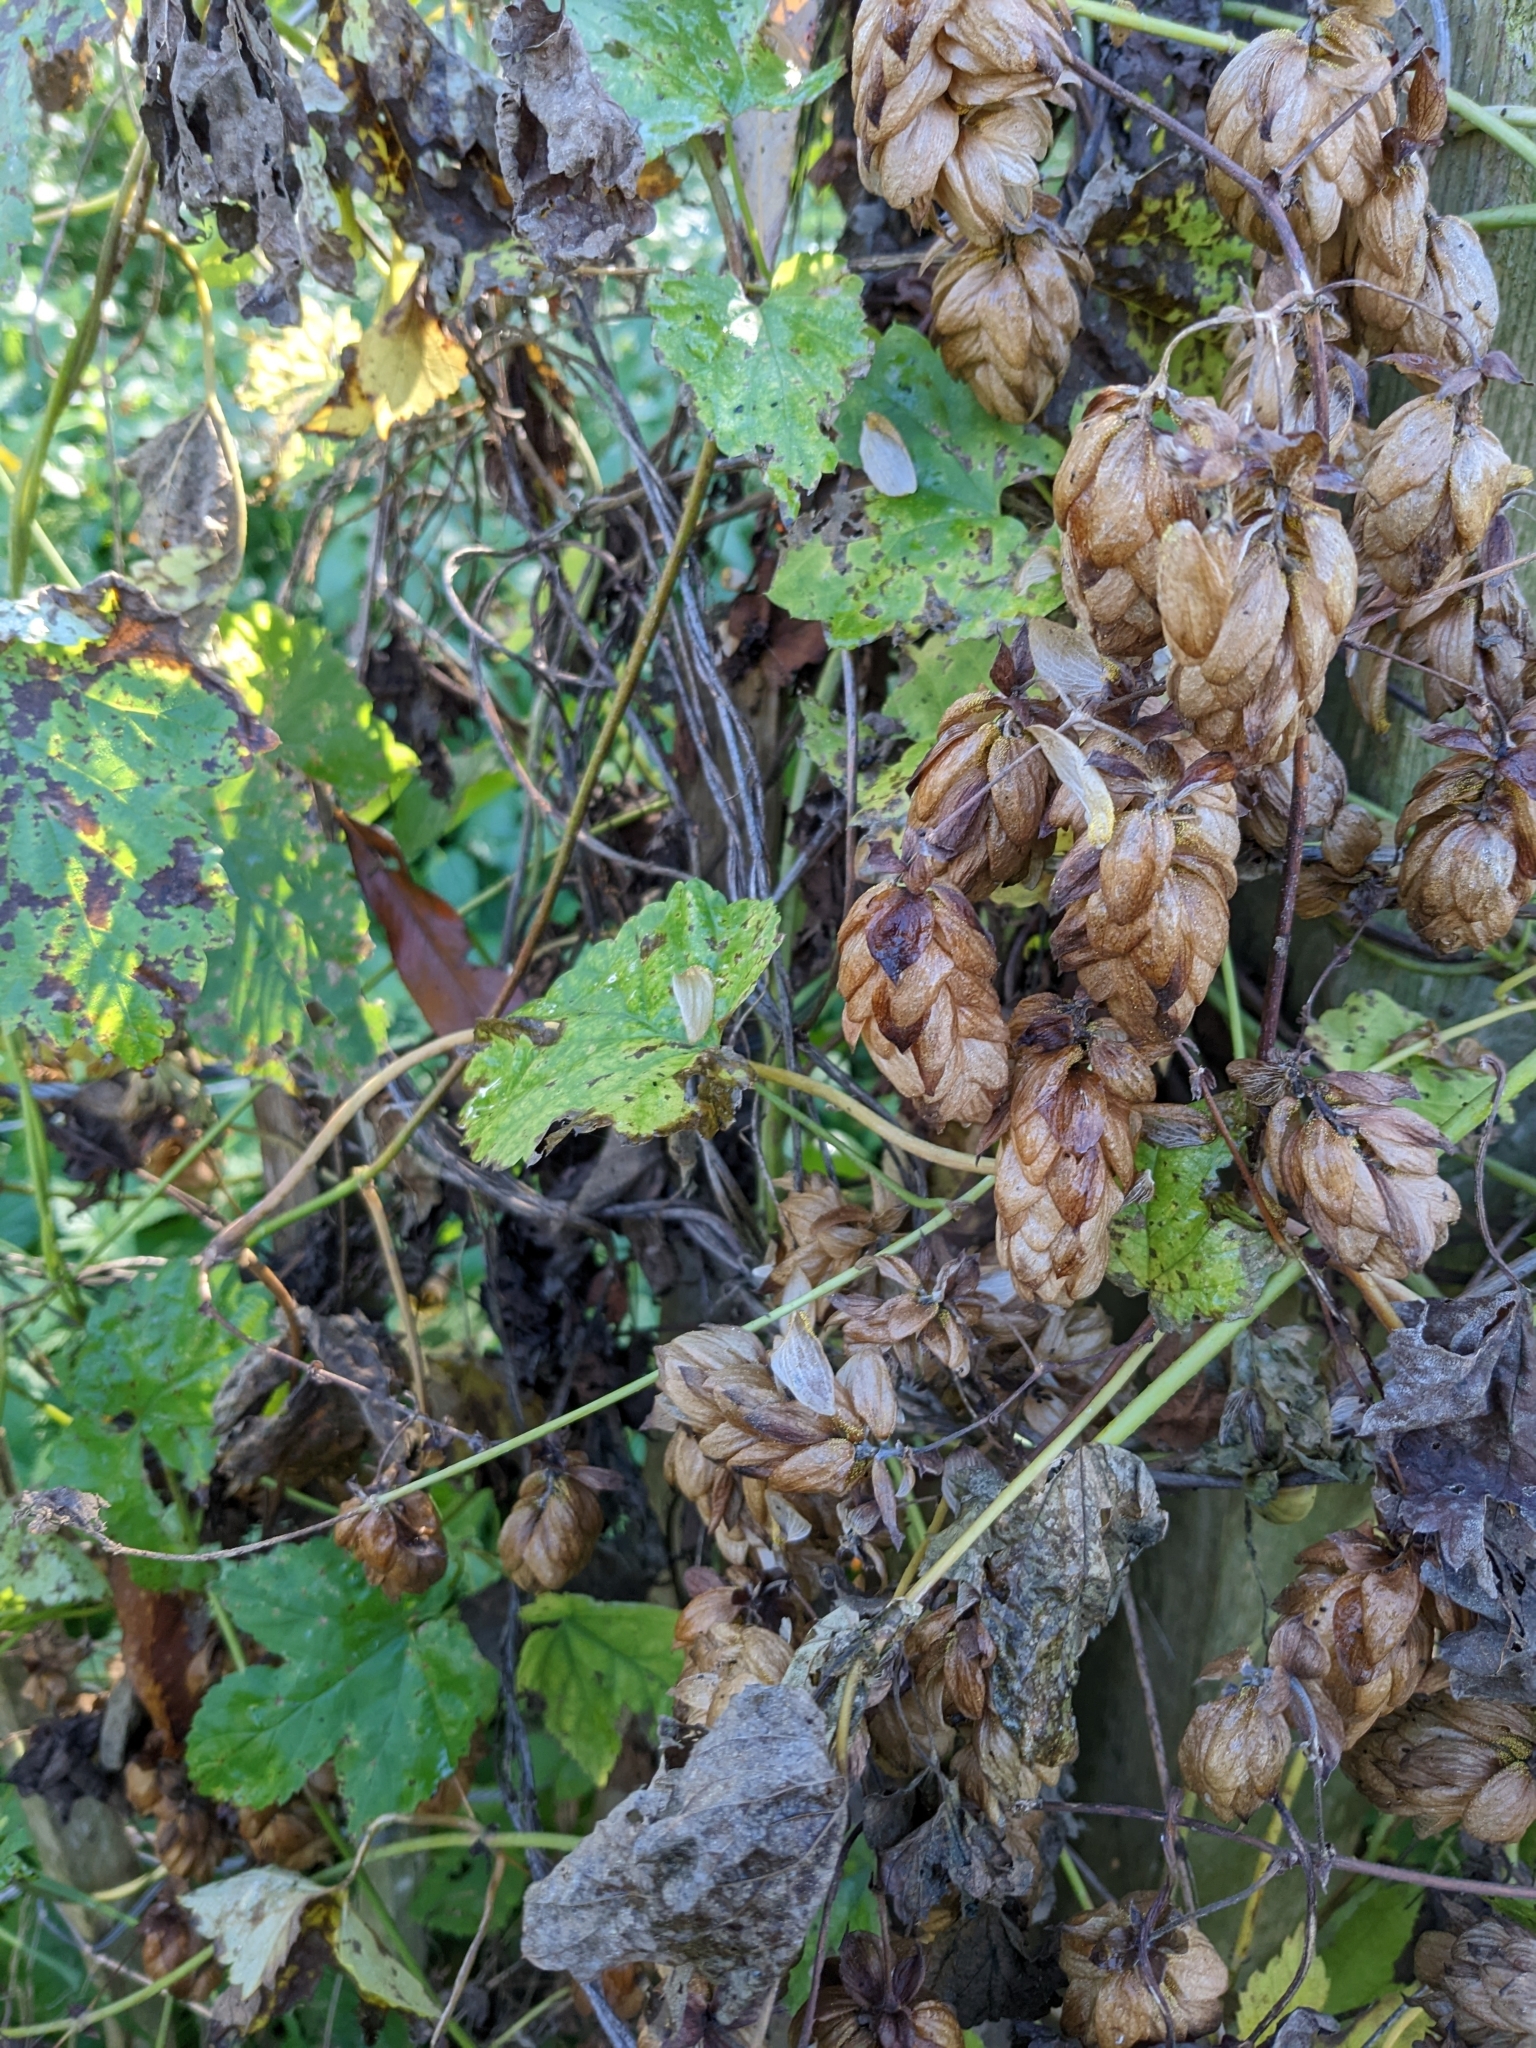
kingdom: Plantae
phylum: Tracheophyta
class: Magnoliopsida
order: Rosales
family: Cannabaceae
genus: Humulus
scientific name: Humulus lupulus
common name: Hop
